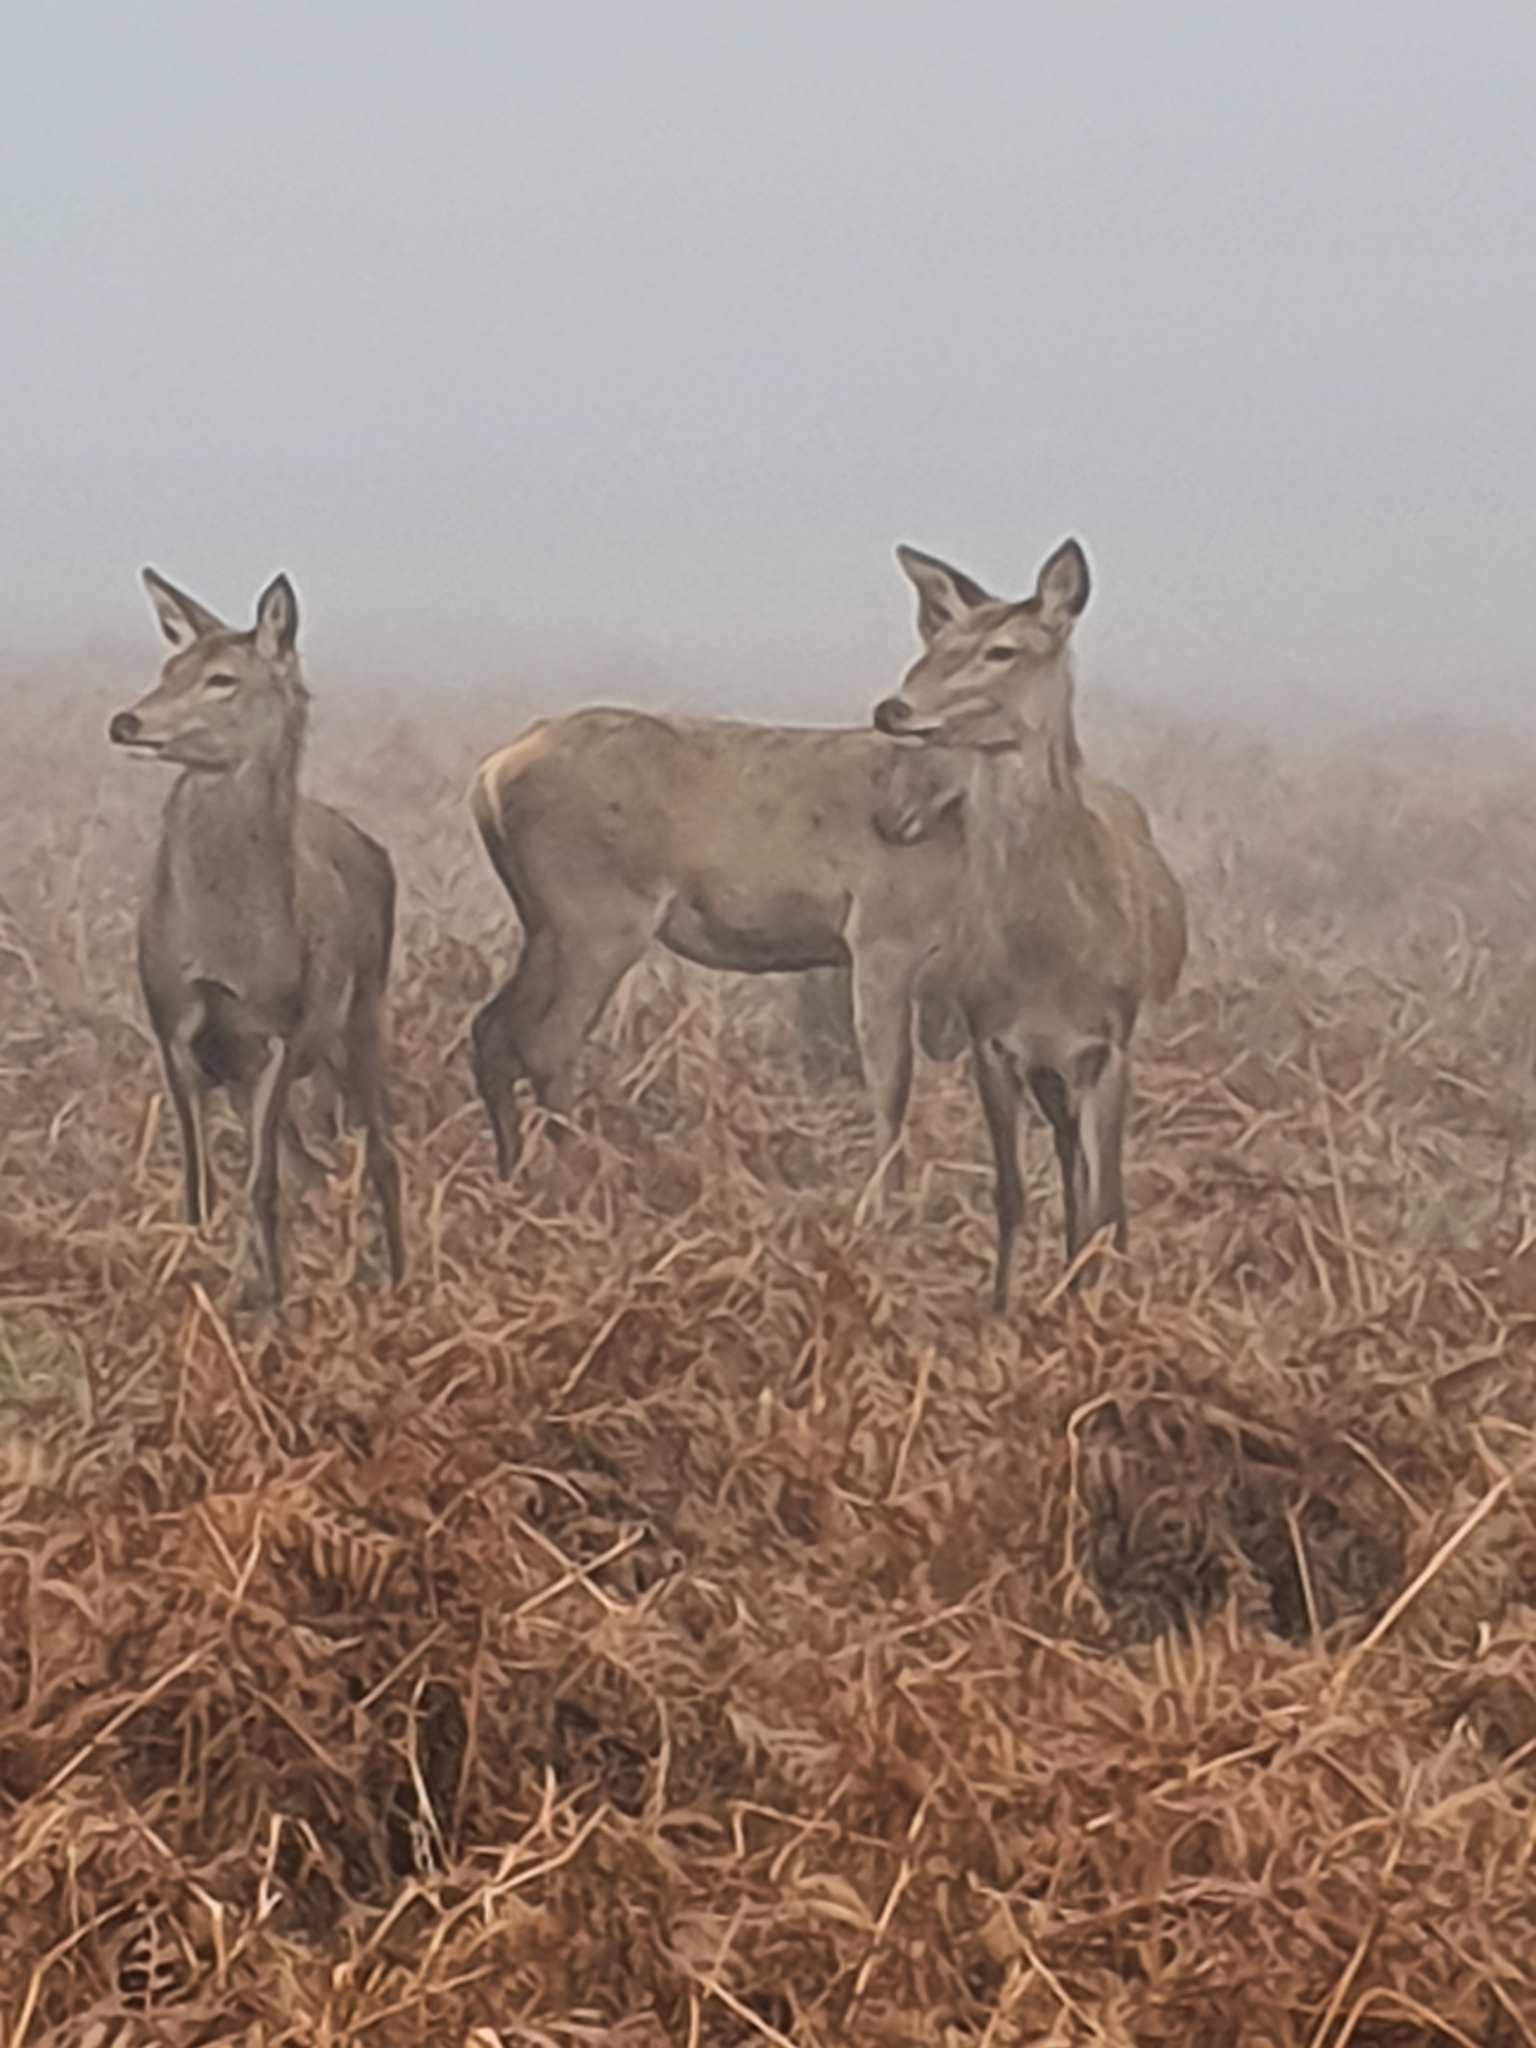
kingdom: Animalia
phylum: Chordata
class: Mammalia
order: Artiodactyla
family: Cervidae
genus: Cervus
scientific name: Cervus elaphus
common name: Red deer
